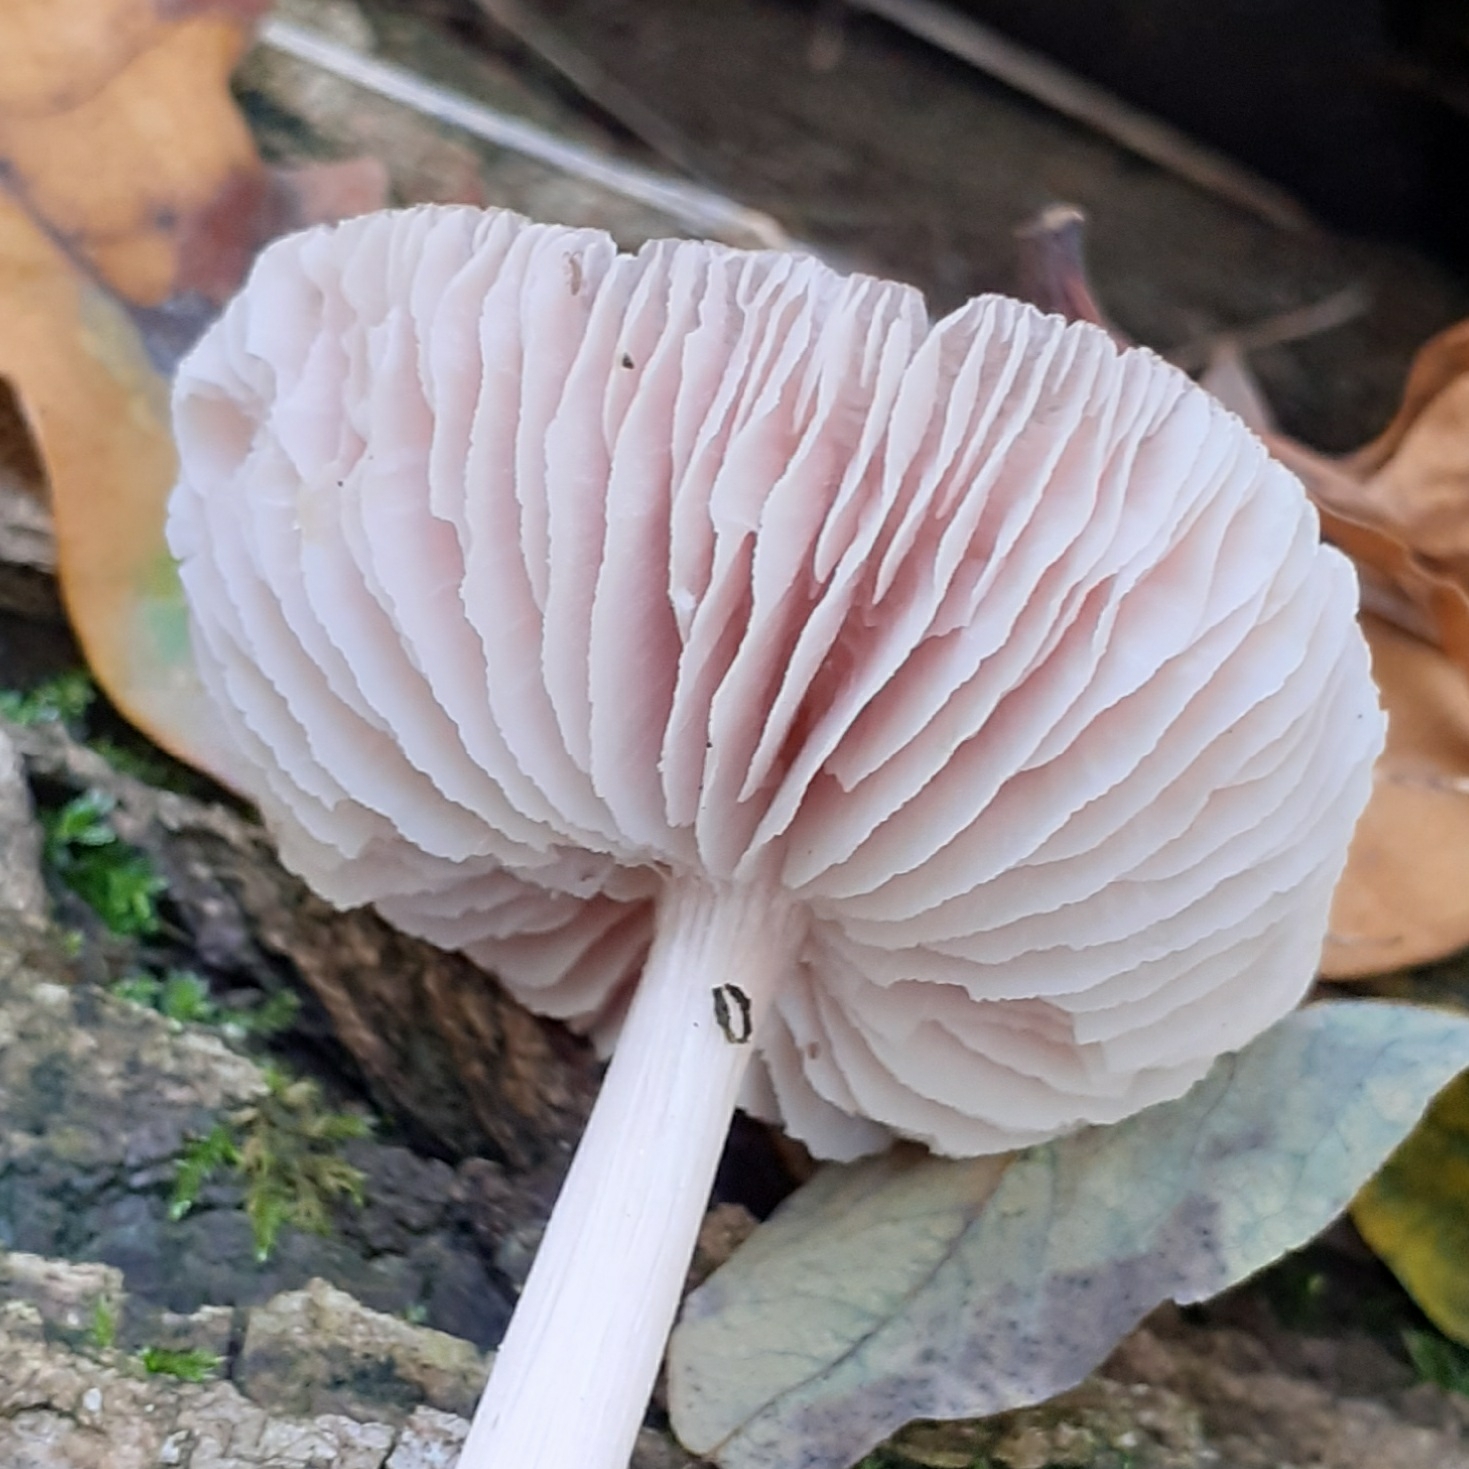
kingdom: Fungi
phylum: Basidiomycota
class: Agaricomycetes
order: Agaricales
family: Mycenaceae
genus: Mycena
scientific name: Mycena rosea
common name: Rosy bonnet
